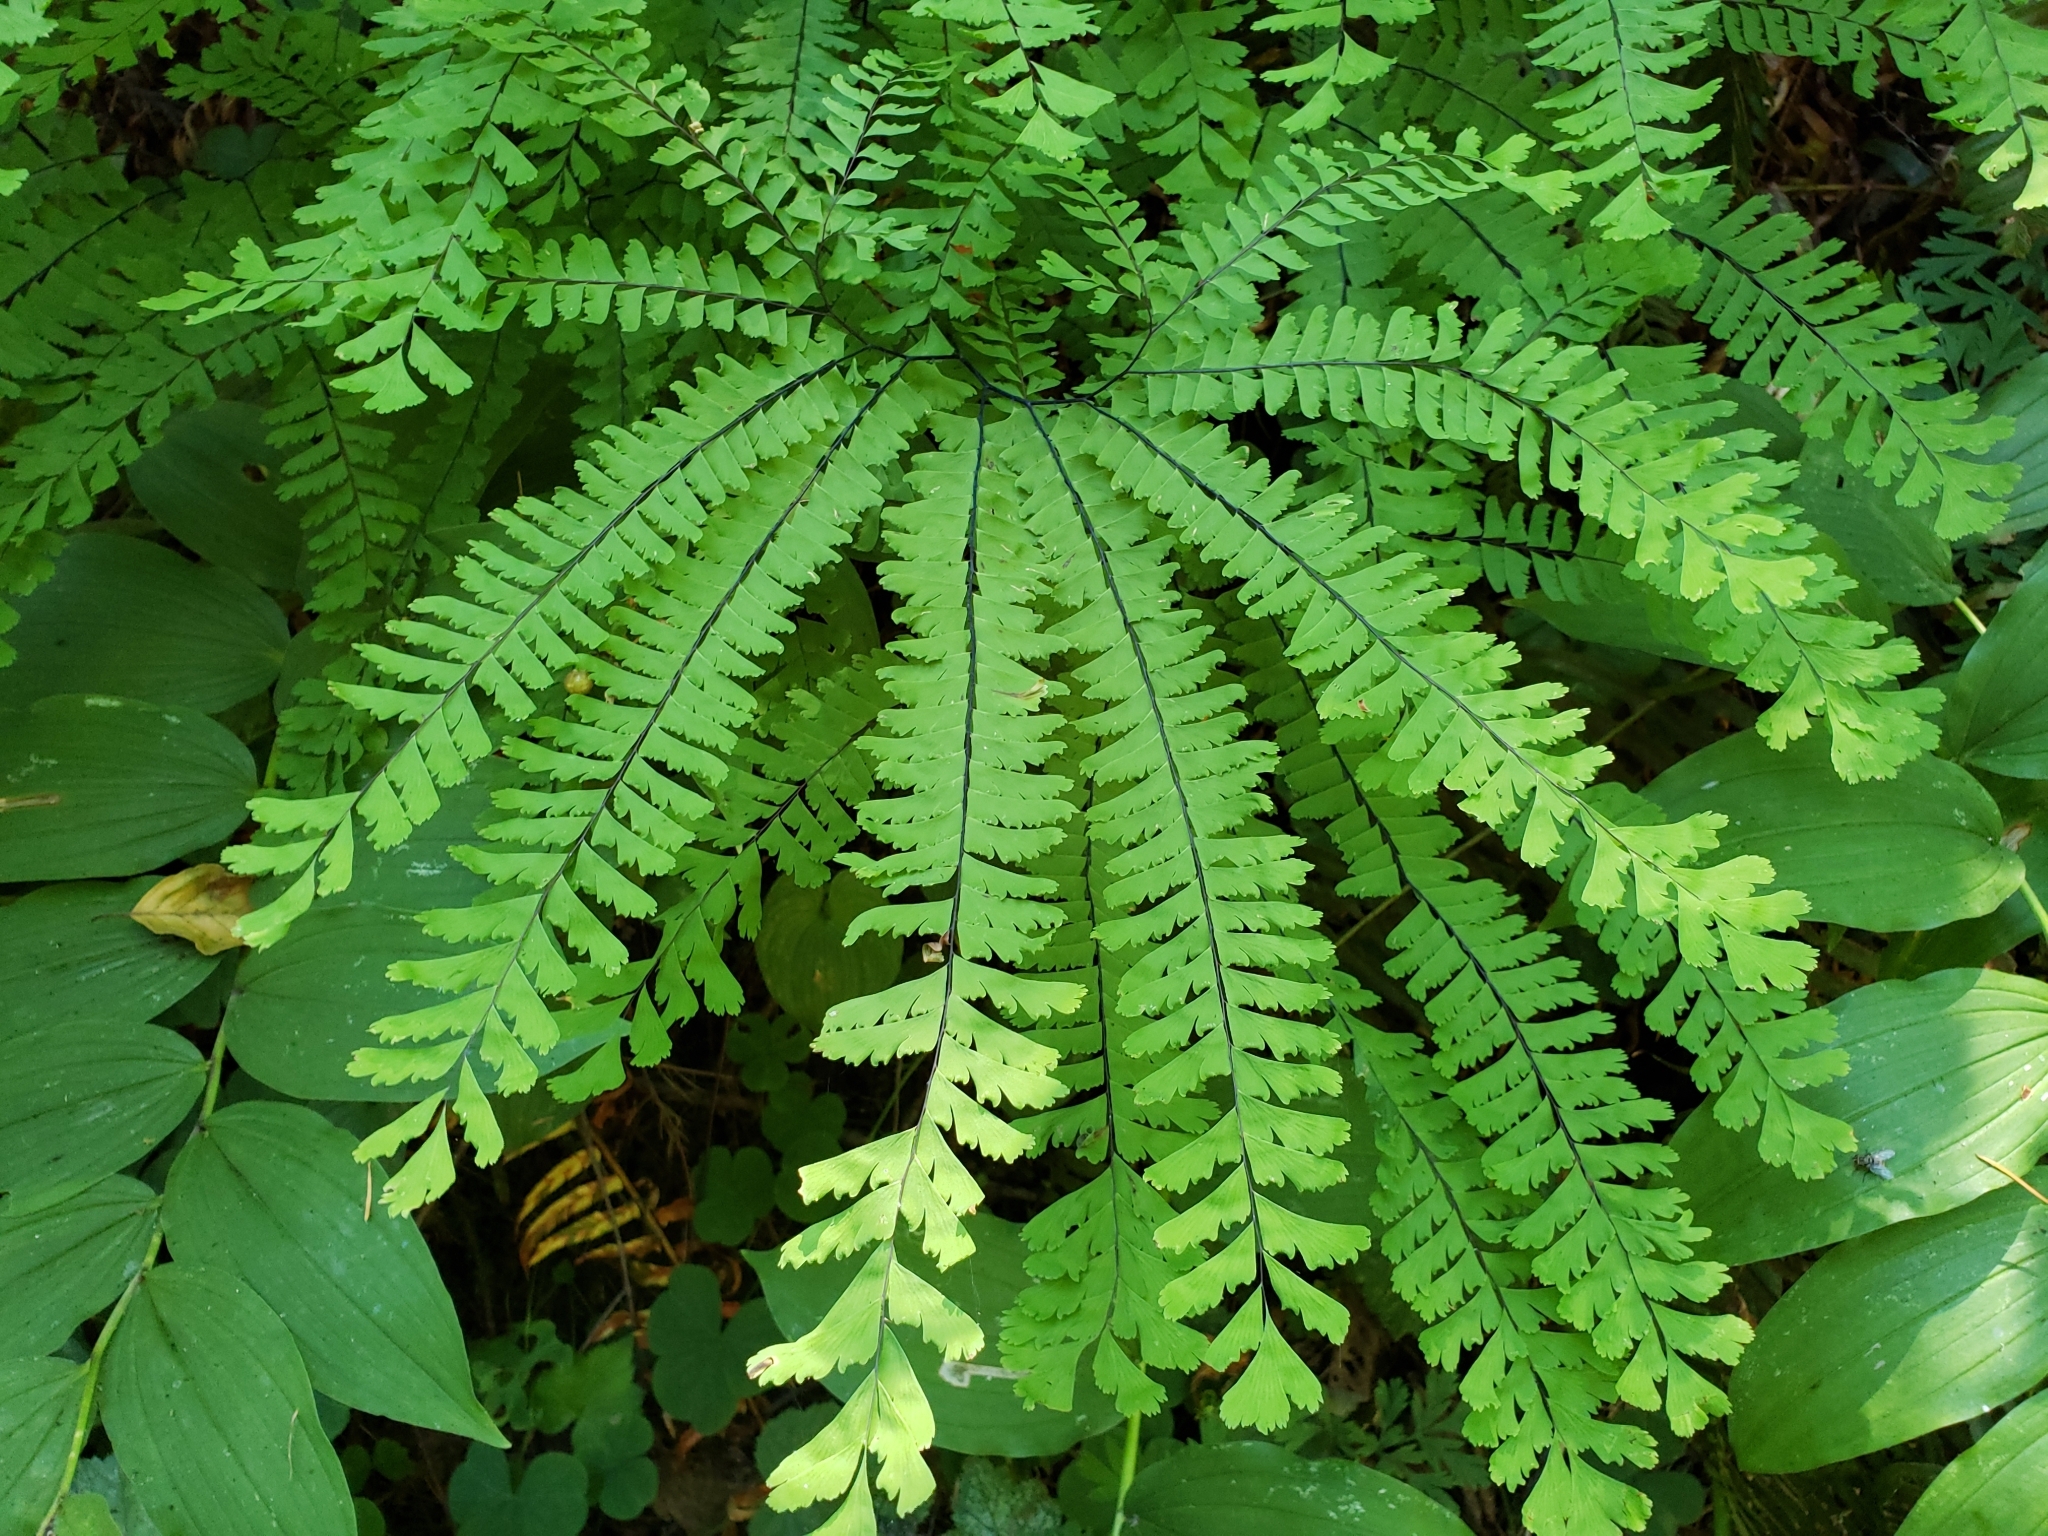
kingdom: Plantae
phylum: Tracheophyta
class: Polypodiopsida
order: Polypodiales
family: Pteridaceae
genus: Adiantum
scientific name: Adiantum aleuticum
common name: Aleutian maidenhair fern
